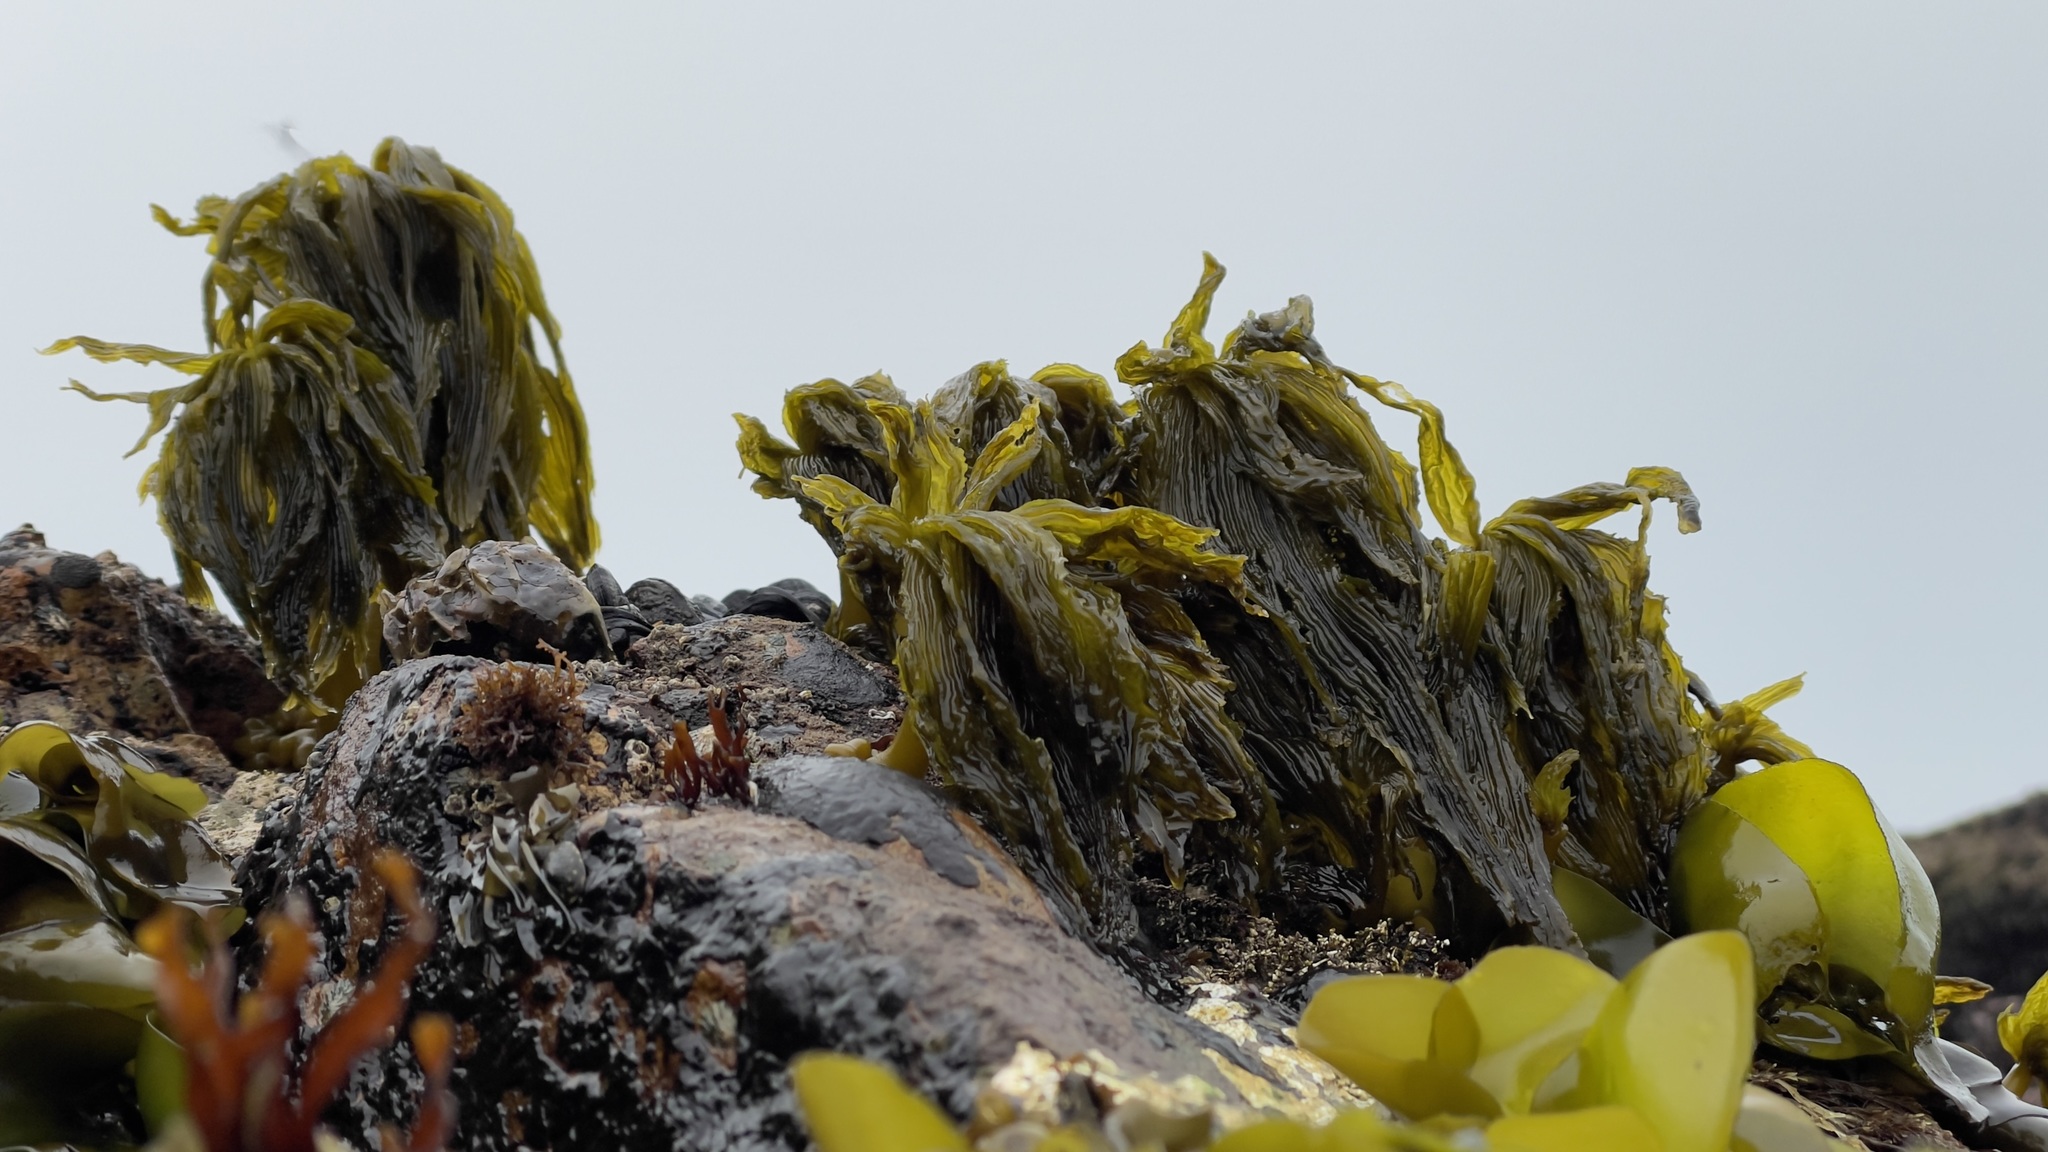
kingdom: Chromista
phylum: Ochrophyta
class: Phaeophyceae
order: Laminariales
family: Laminariaceae
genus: Postelsia
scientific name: Postelsia palmiformis
